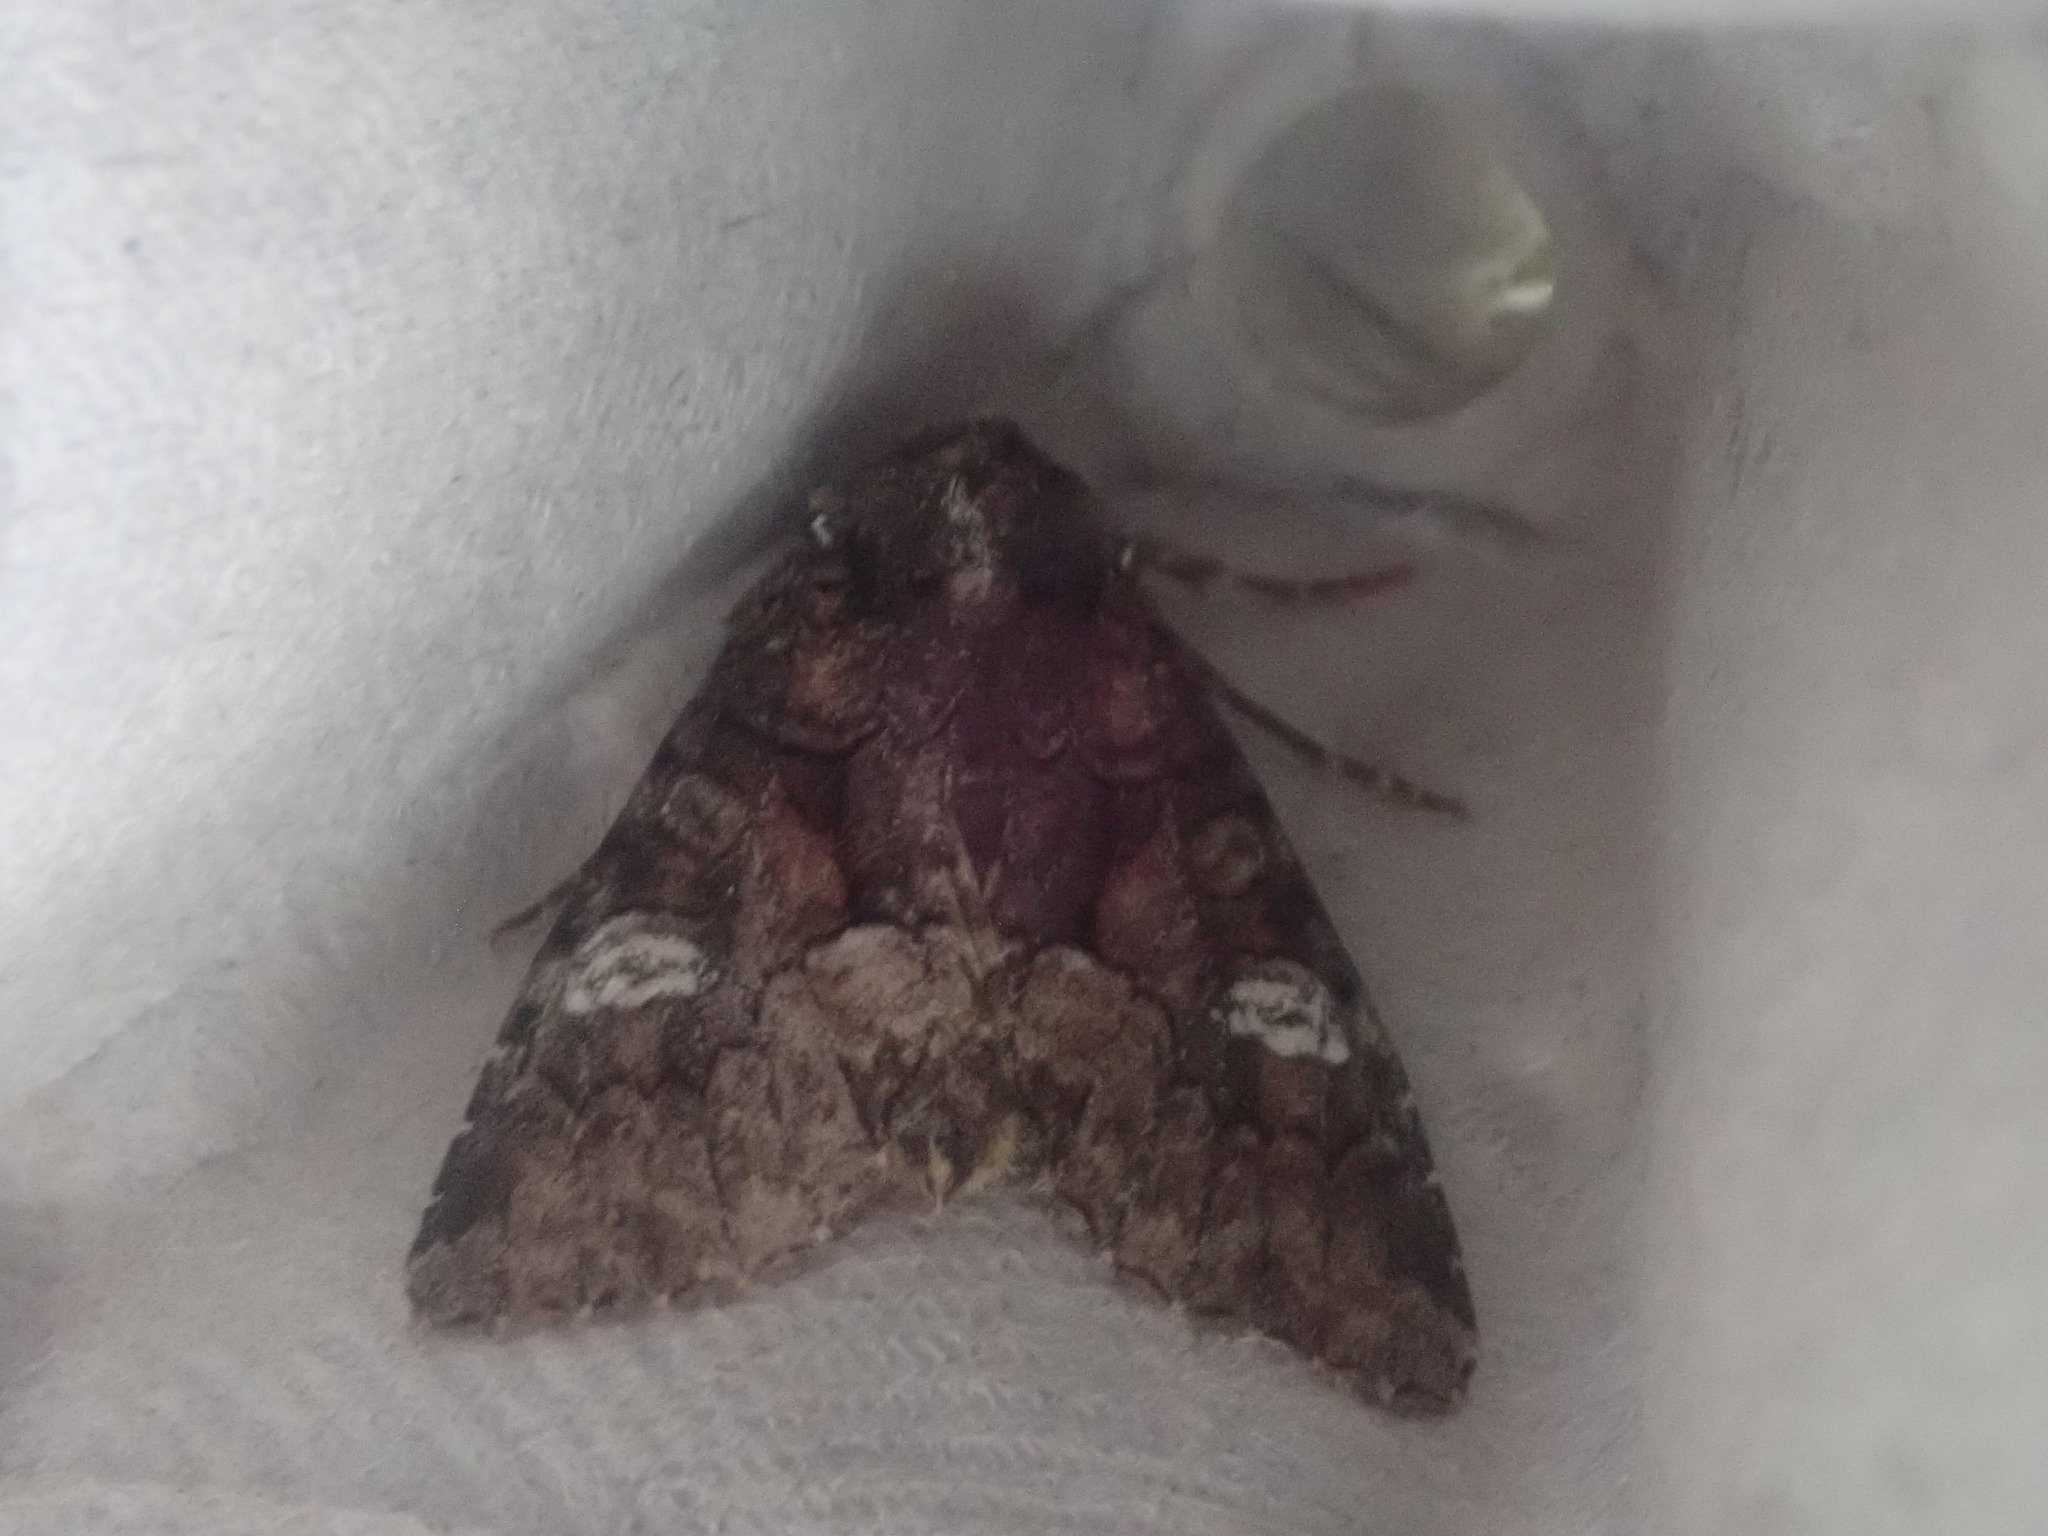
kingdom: Animalia
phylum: Arthropoda
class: Insecta
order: Lepidoptera
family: Noctuidae
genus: Fishia
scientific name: Fishia illocata
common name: Wandering brocade moth
